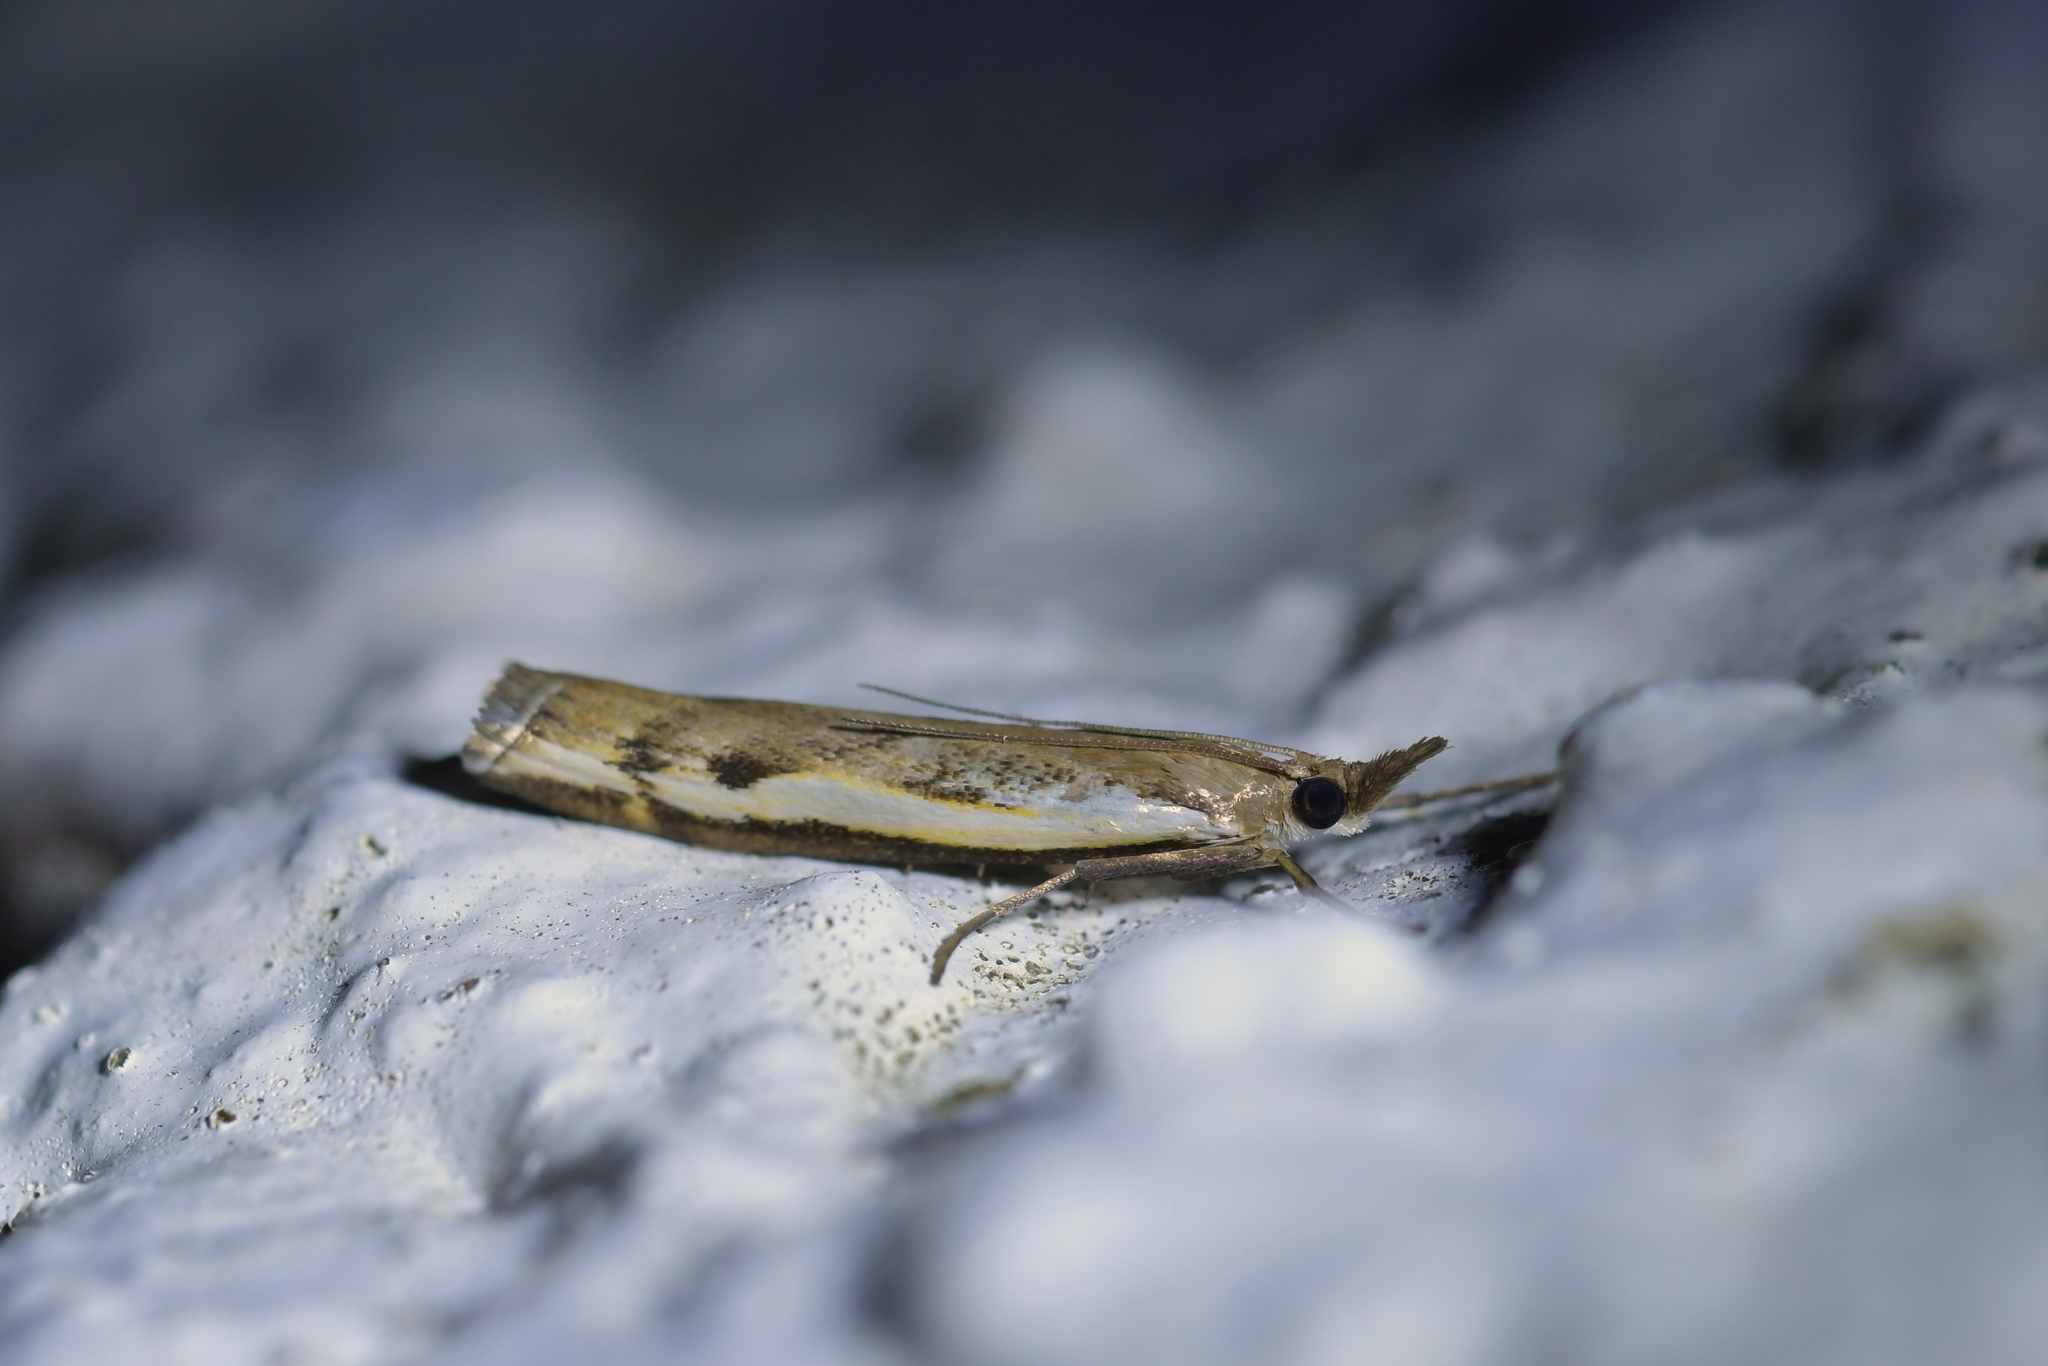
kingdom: Animalia
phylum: Arthropoda
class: Insecta
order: Lepidoptera
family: Crambidae
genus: Orocrambus
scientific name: Orocrambus flexuosellus
